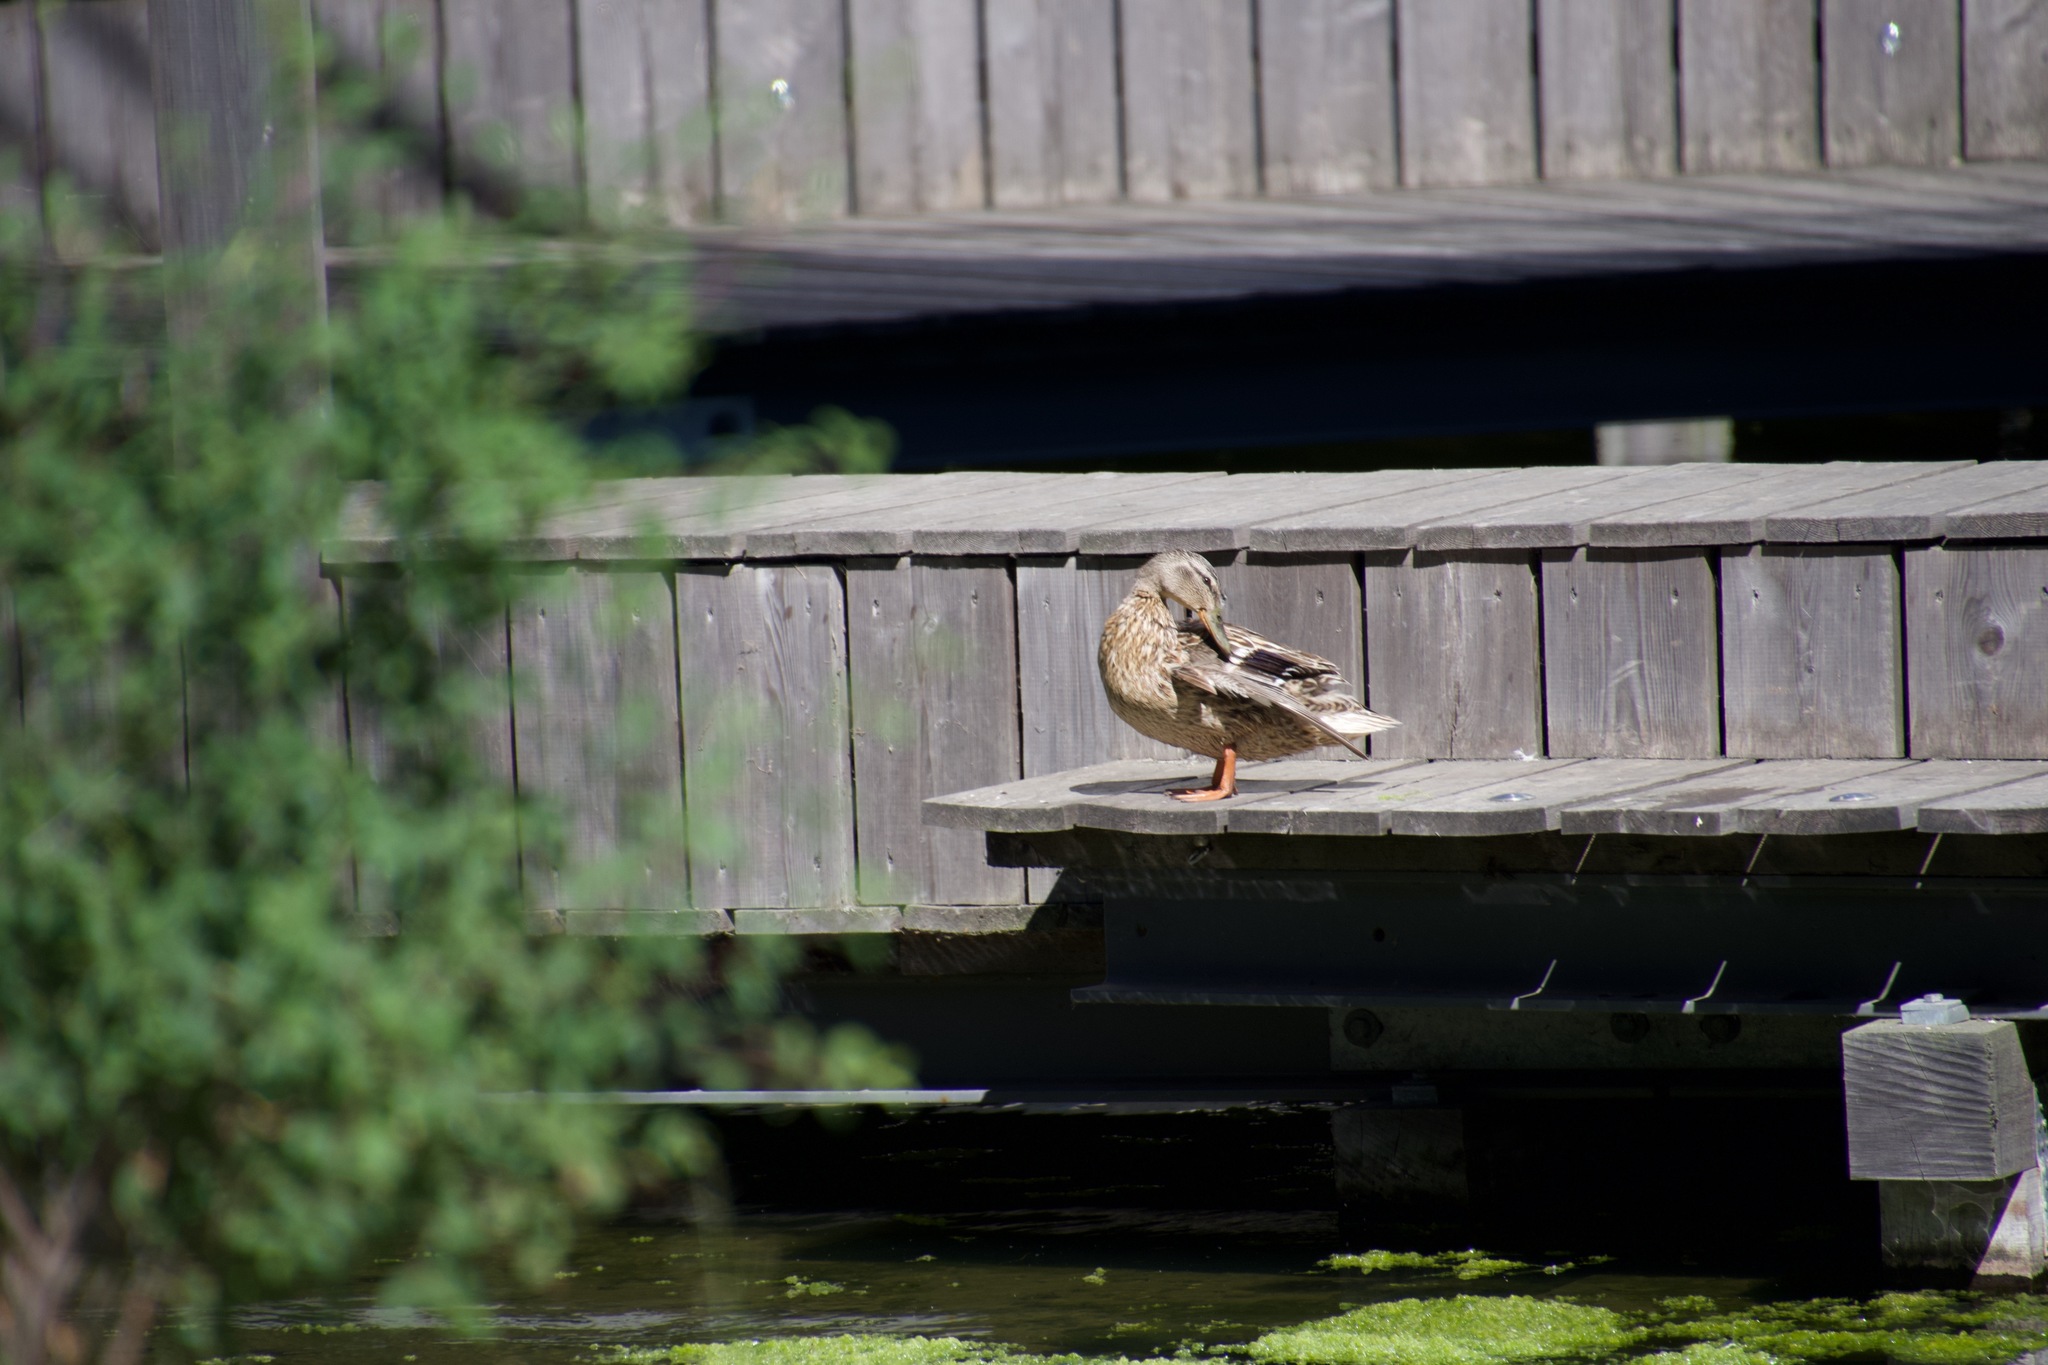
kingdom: Animalia
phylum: Chordata
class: Aves
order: Anseriformes
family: Anatidae
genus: Anas
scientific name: Anas platyrhynchos
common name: Mallard
